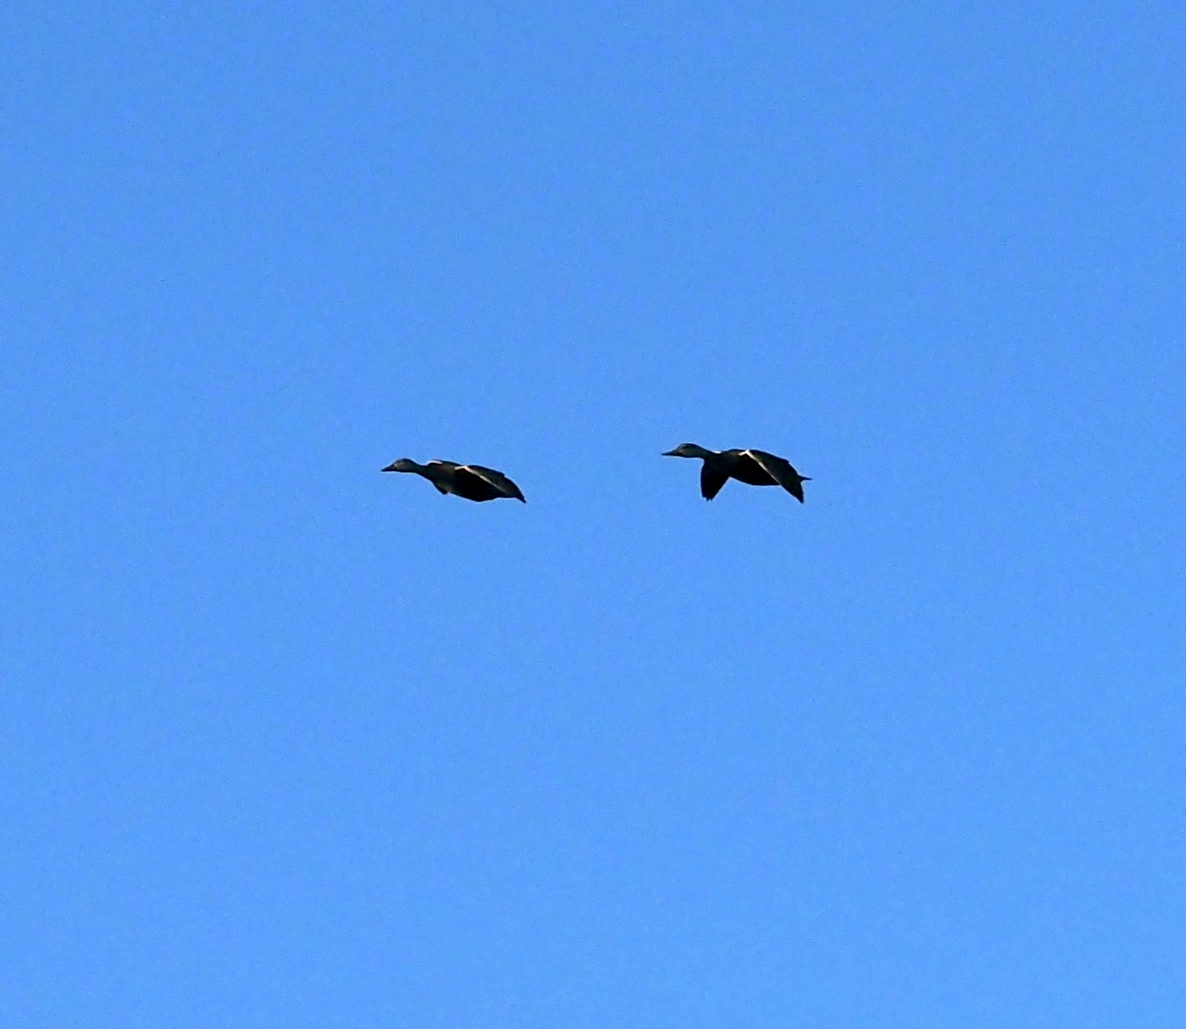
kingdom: Animalia
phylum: Chordata
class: Aves
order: Anseriformes
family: Anatidae
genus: Dendrocygna
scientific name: Dendrocygna autumnalis
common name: Black-bellied whistling duck
